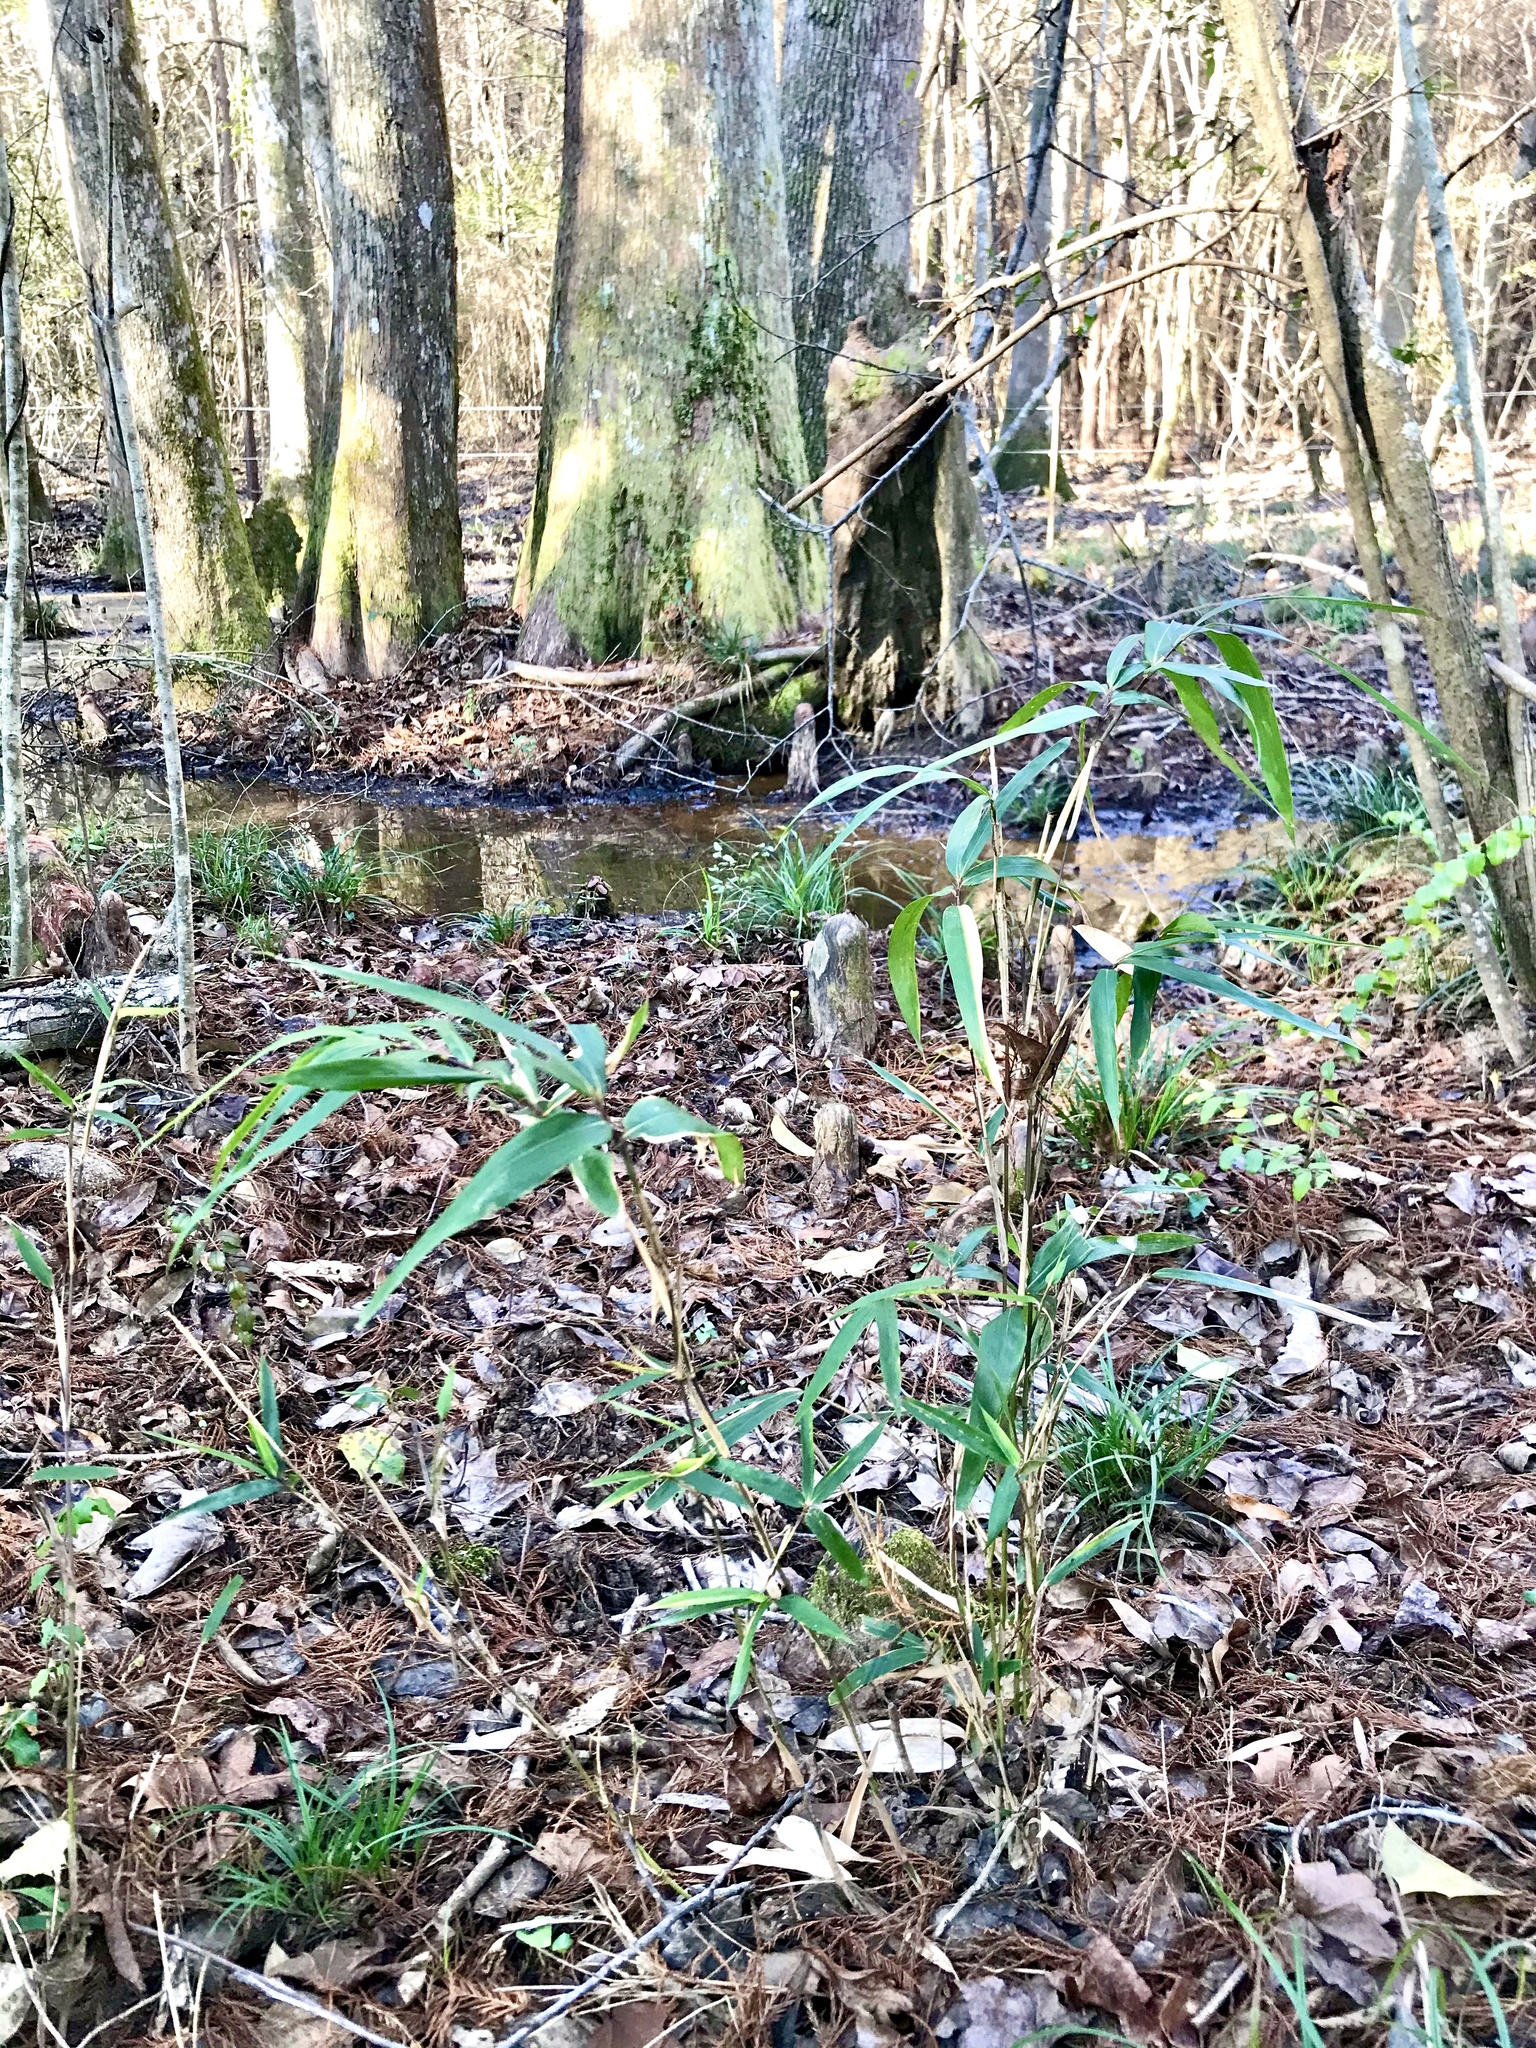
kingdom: Plantae
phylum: Tracheophyta
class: Liliopsida
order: Poales
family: Poaceae
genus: Arundinaria
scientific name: Arundinaria gigantea
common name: Giant cane
